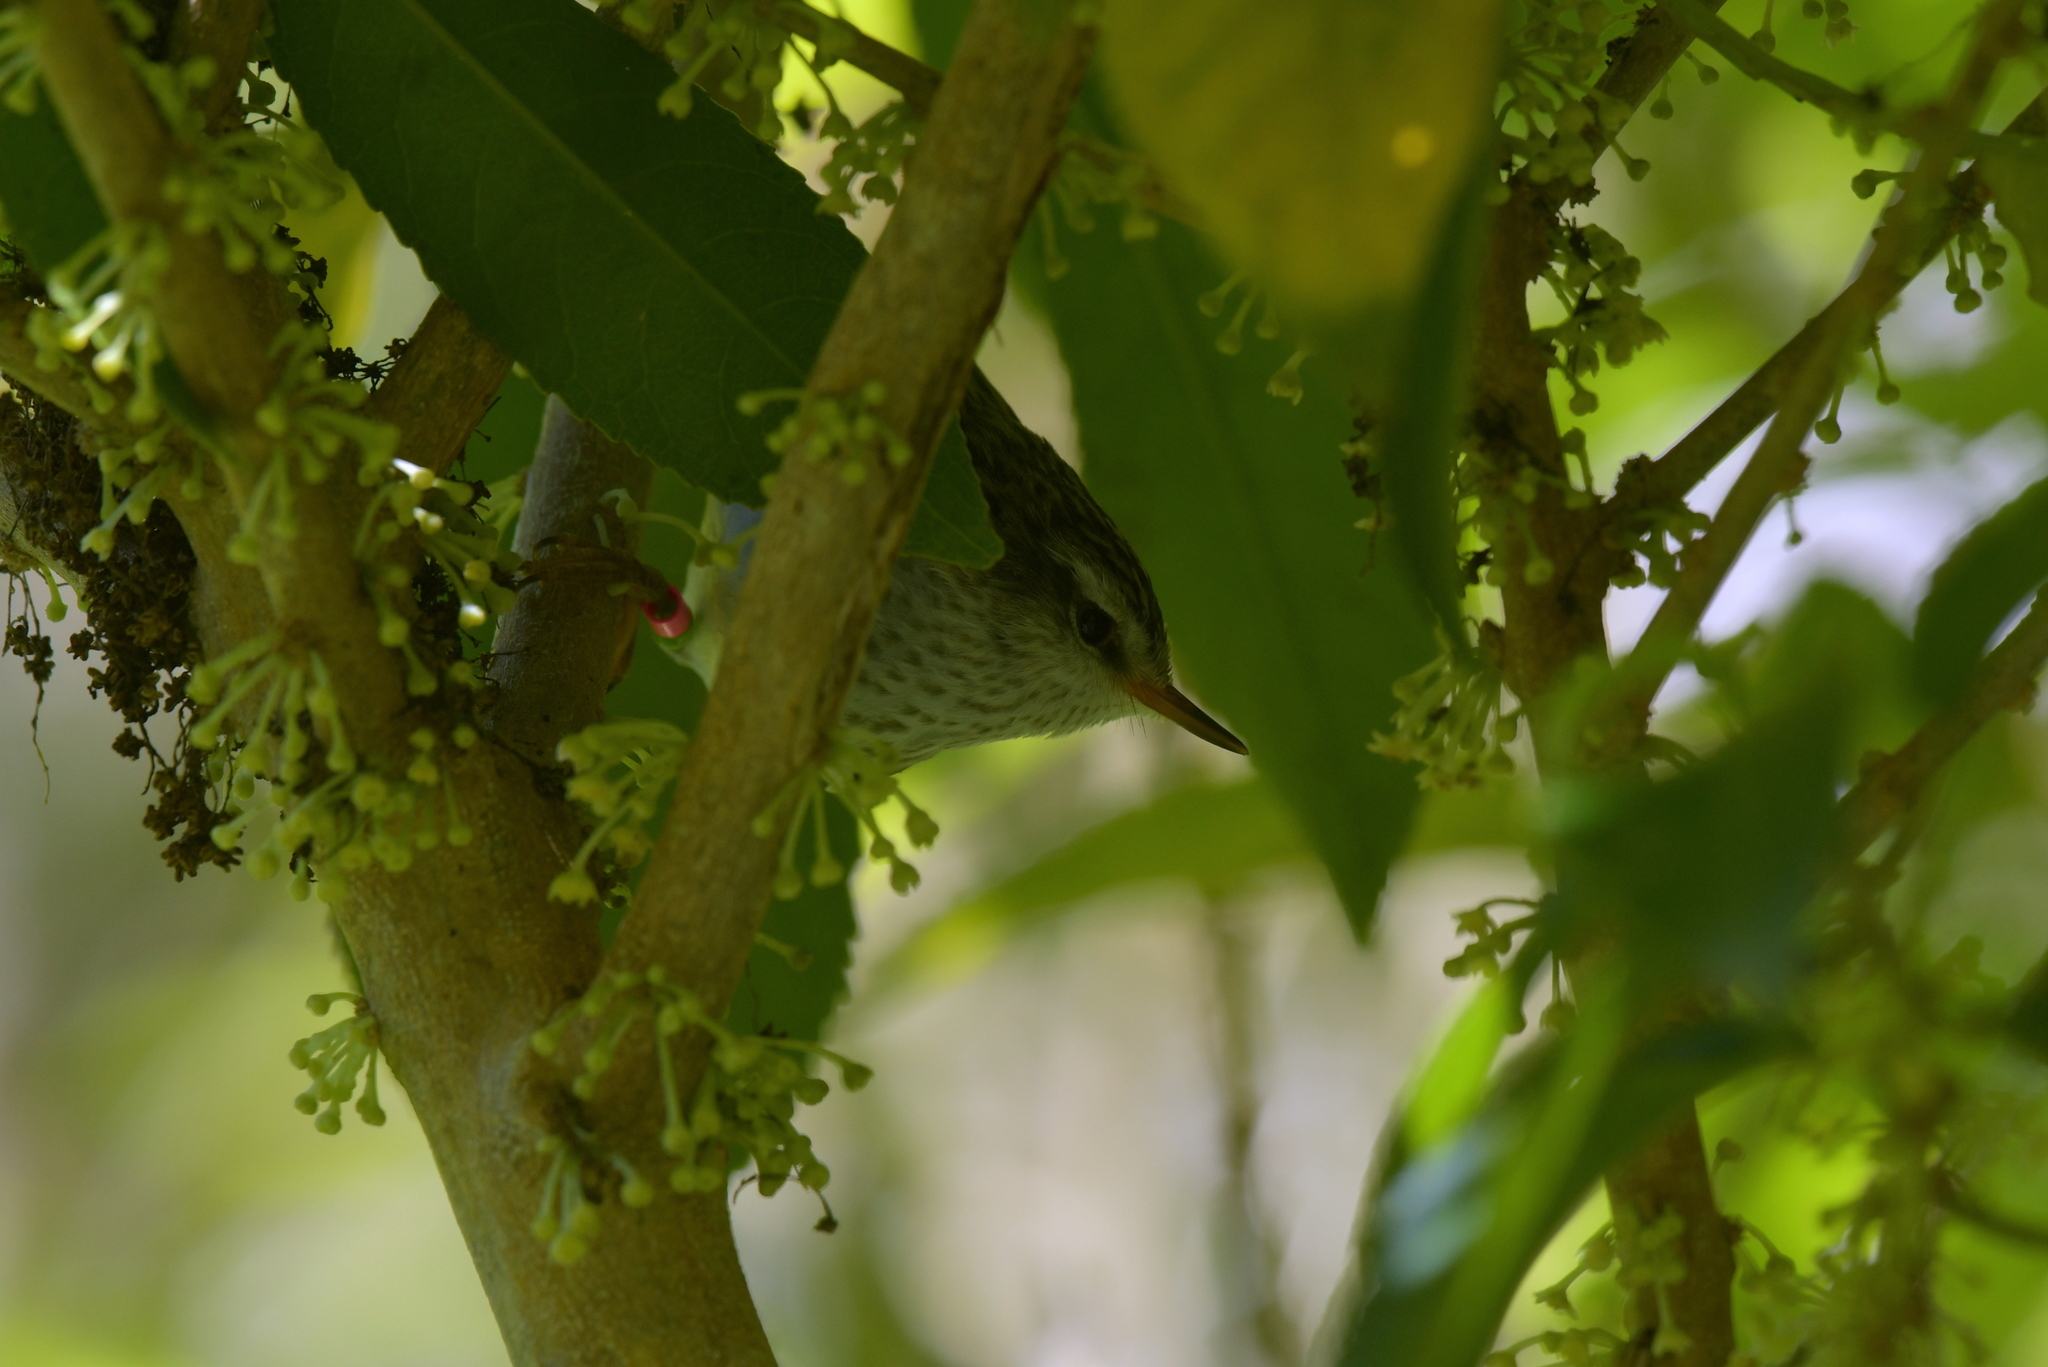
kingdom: Animalia
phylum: Chordata
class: Aves
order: Passeriformes
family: Acanthisittidae
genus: Acanthisitta
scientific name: Acanthisitta chloris
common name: Rifleman
